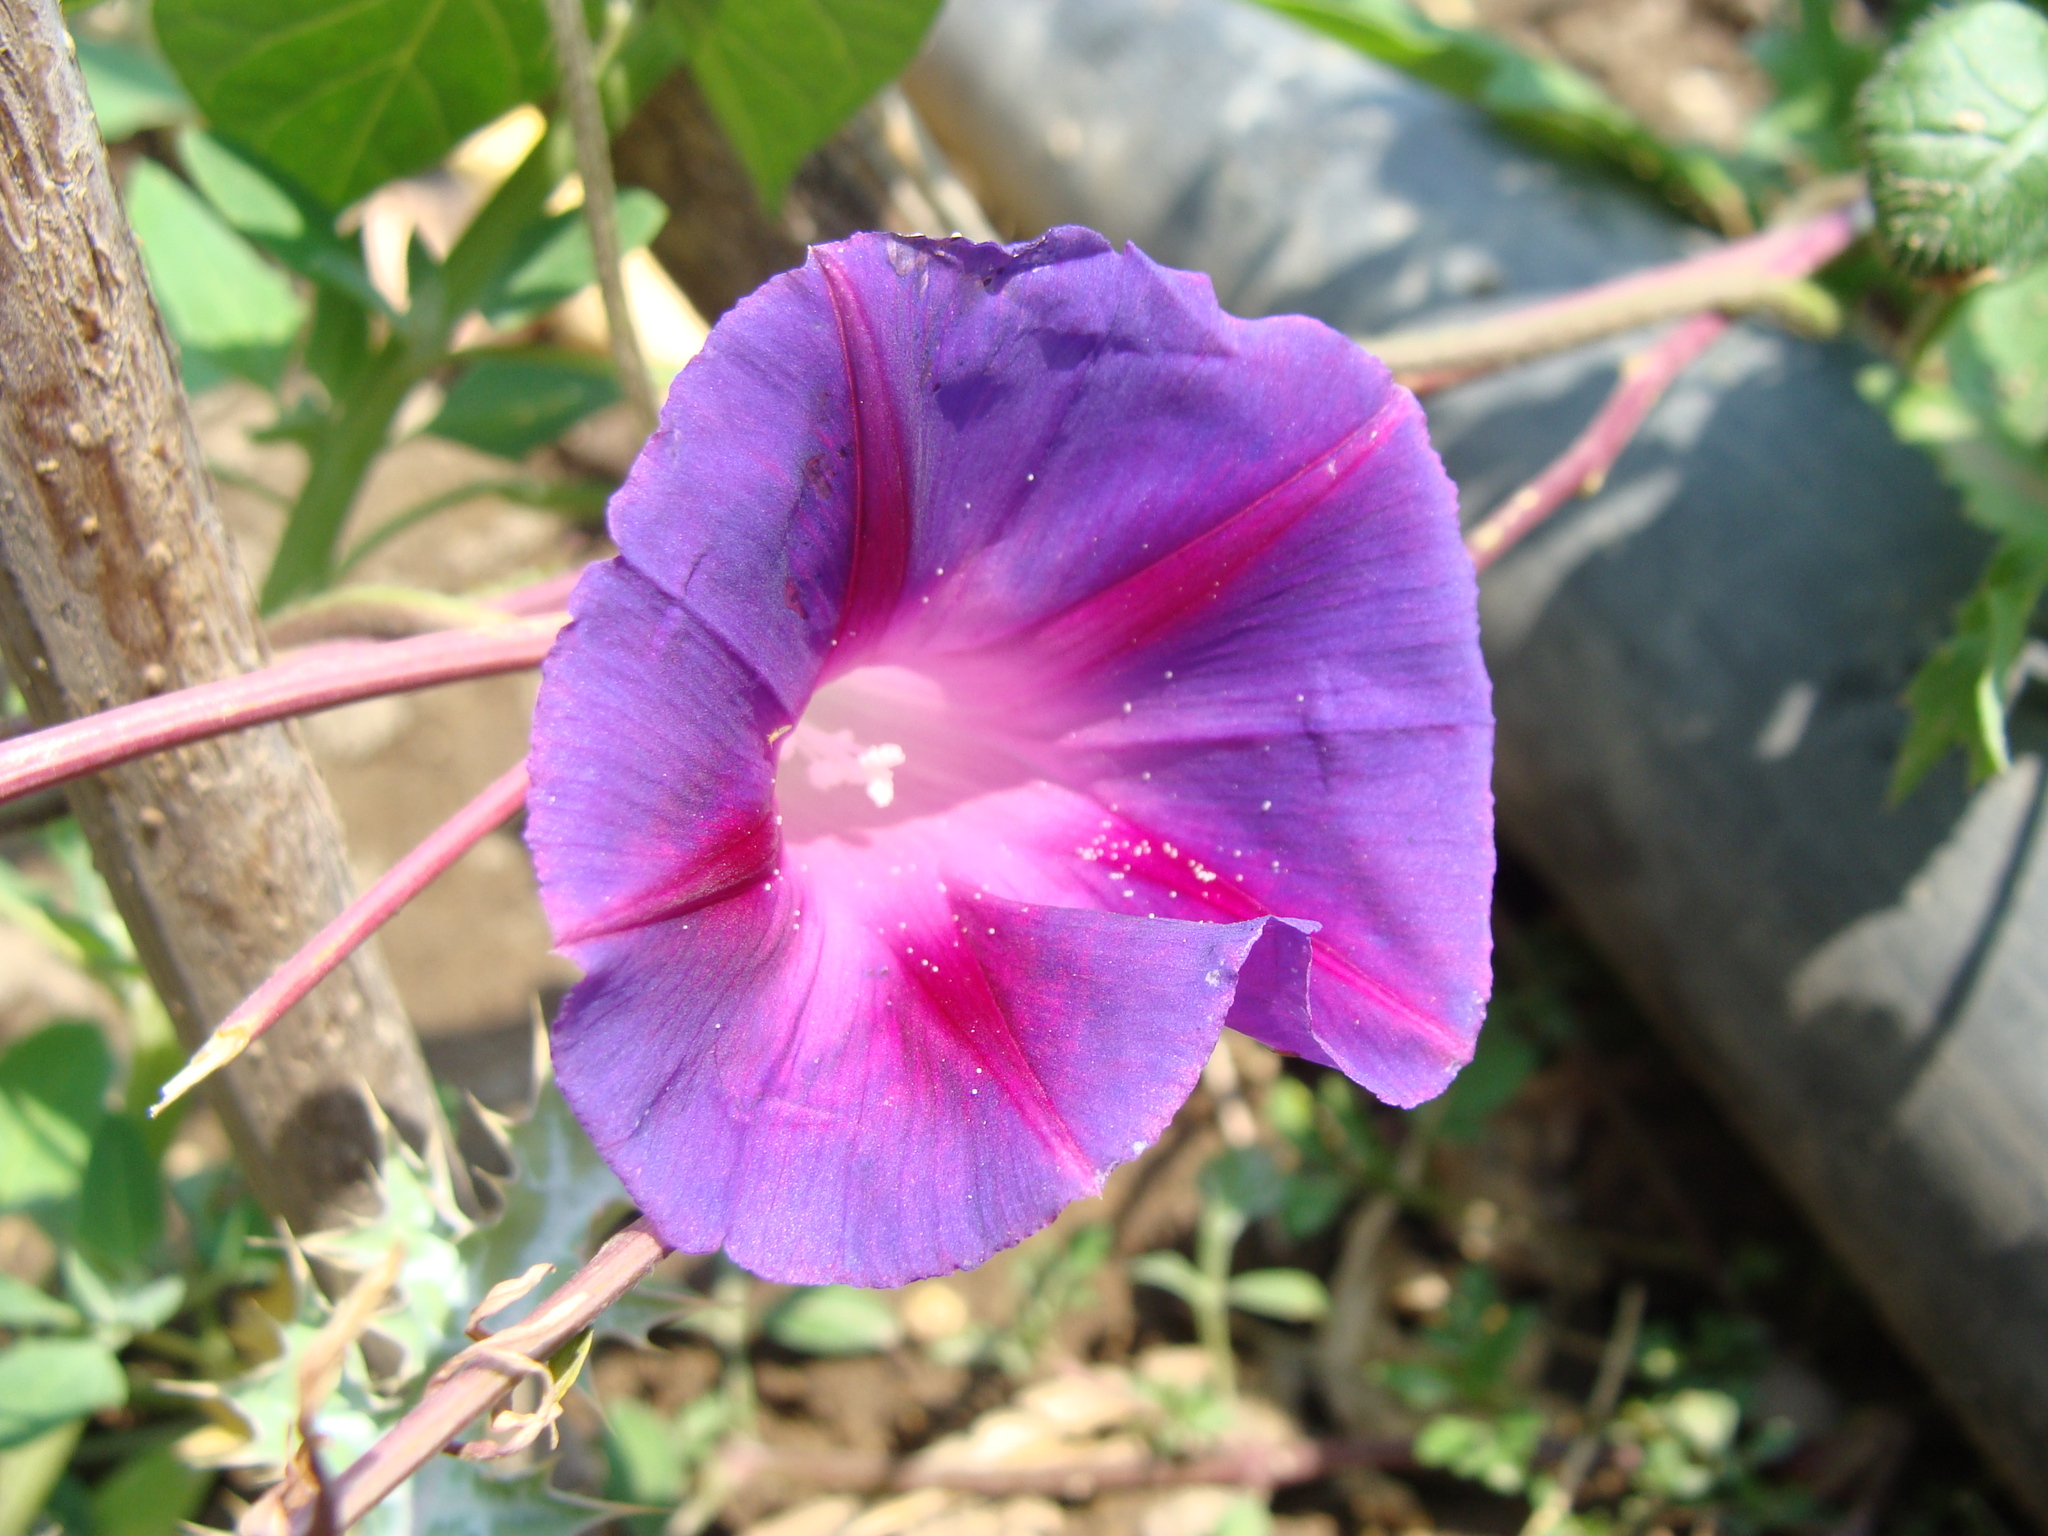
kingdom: Plantae
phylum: Tracheophyta
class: Magnoliopsida
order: Solanales
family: Convolvulaceae
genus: Ipomoea
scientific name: Ipomoea purpurea
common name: Common morning-glory
